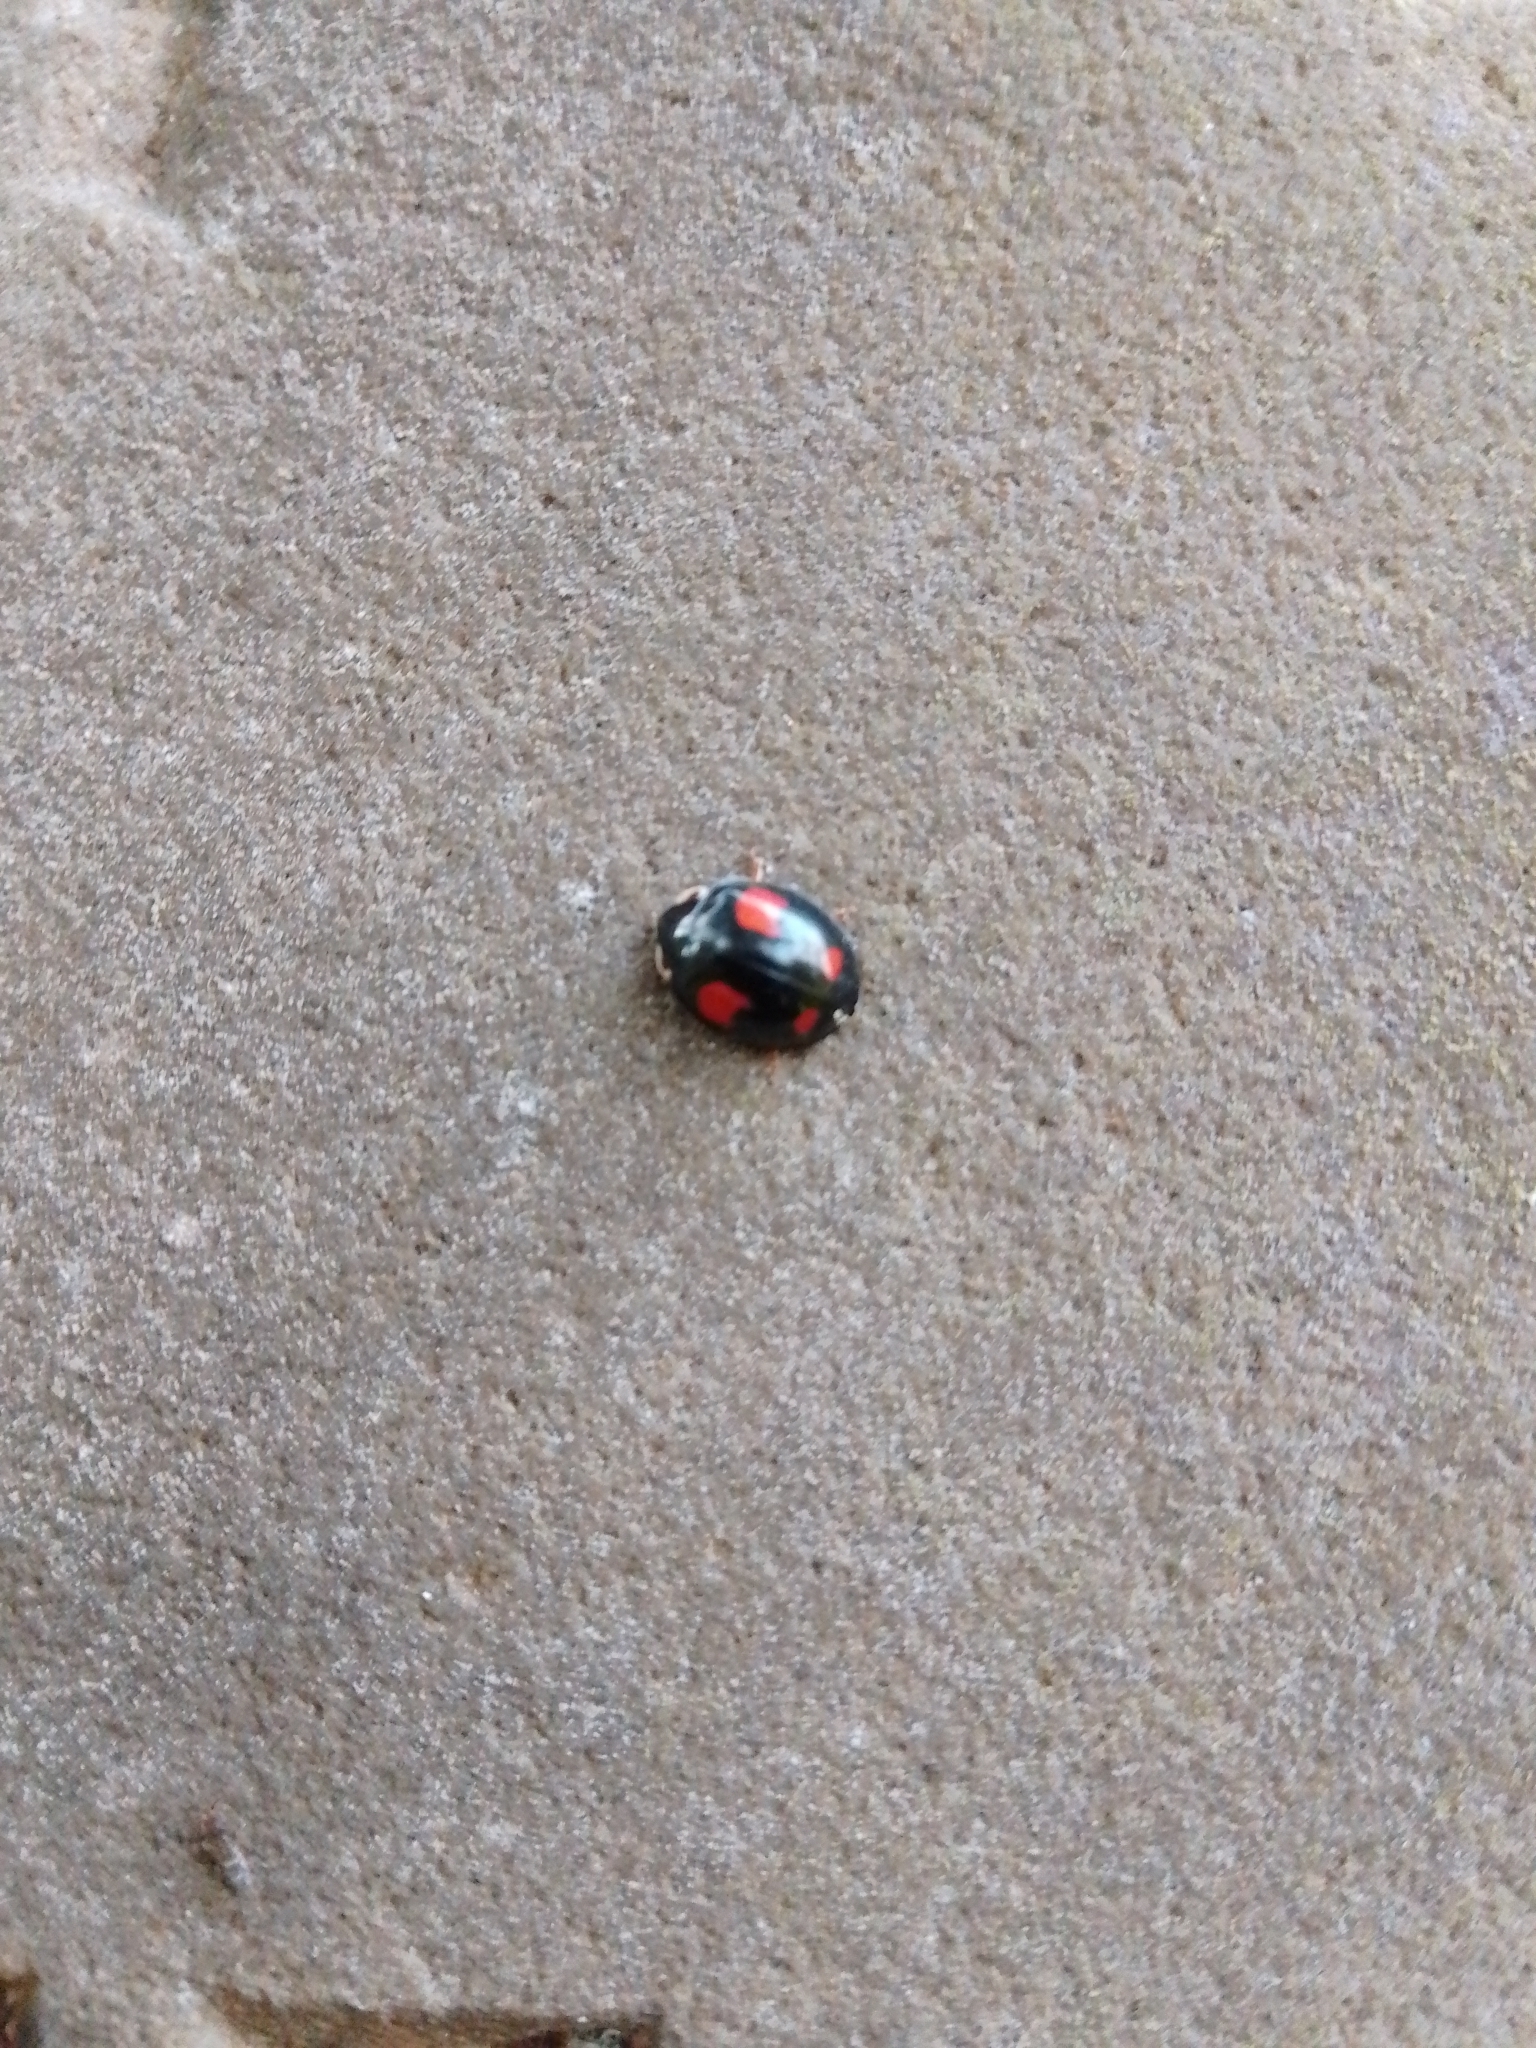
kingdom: Animalia
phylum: Arthropoda
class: Insecta
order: Coleoptera
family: Coccinellidae
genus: Harmonia
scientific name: Harmonia axyridis
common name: Harlequin ladybird
